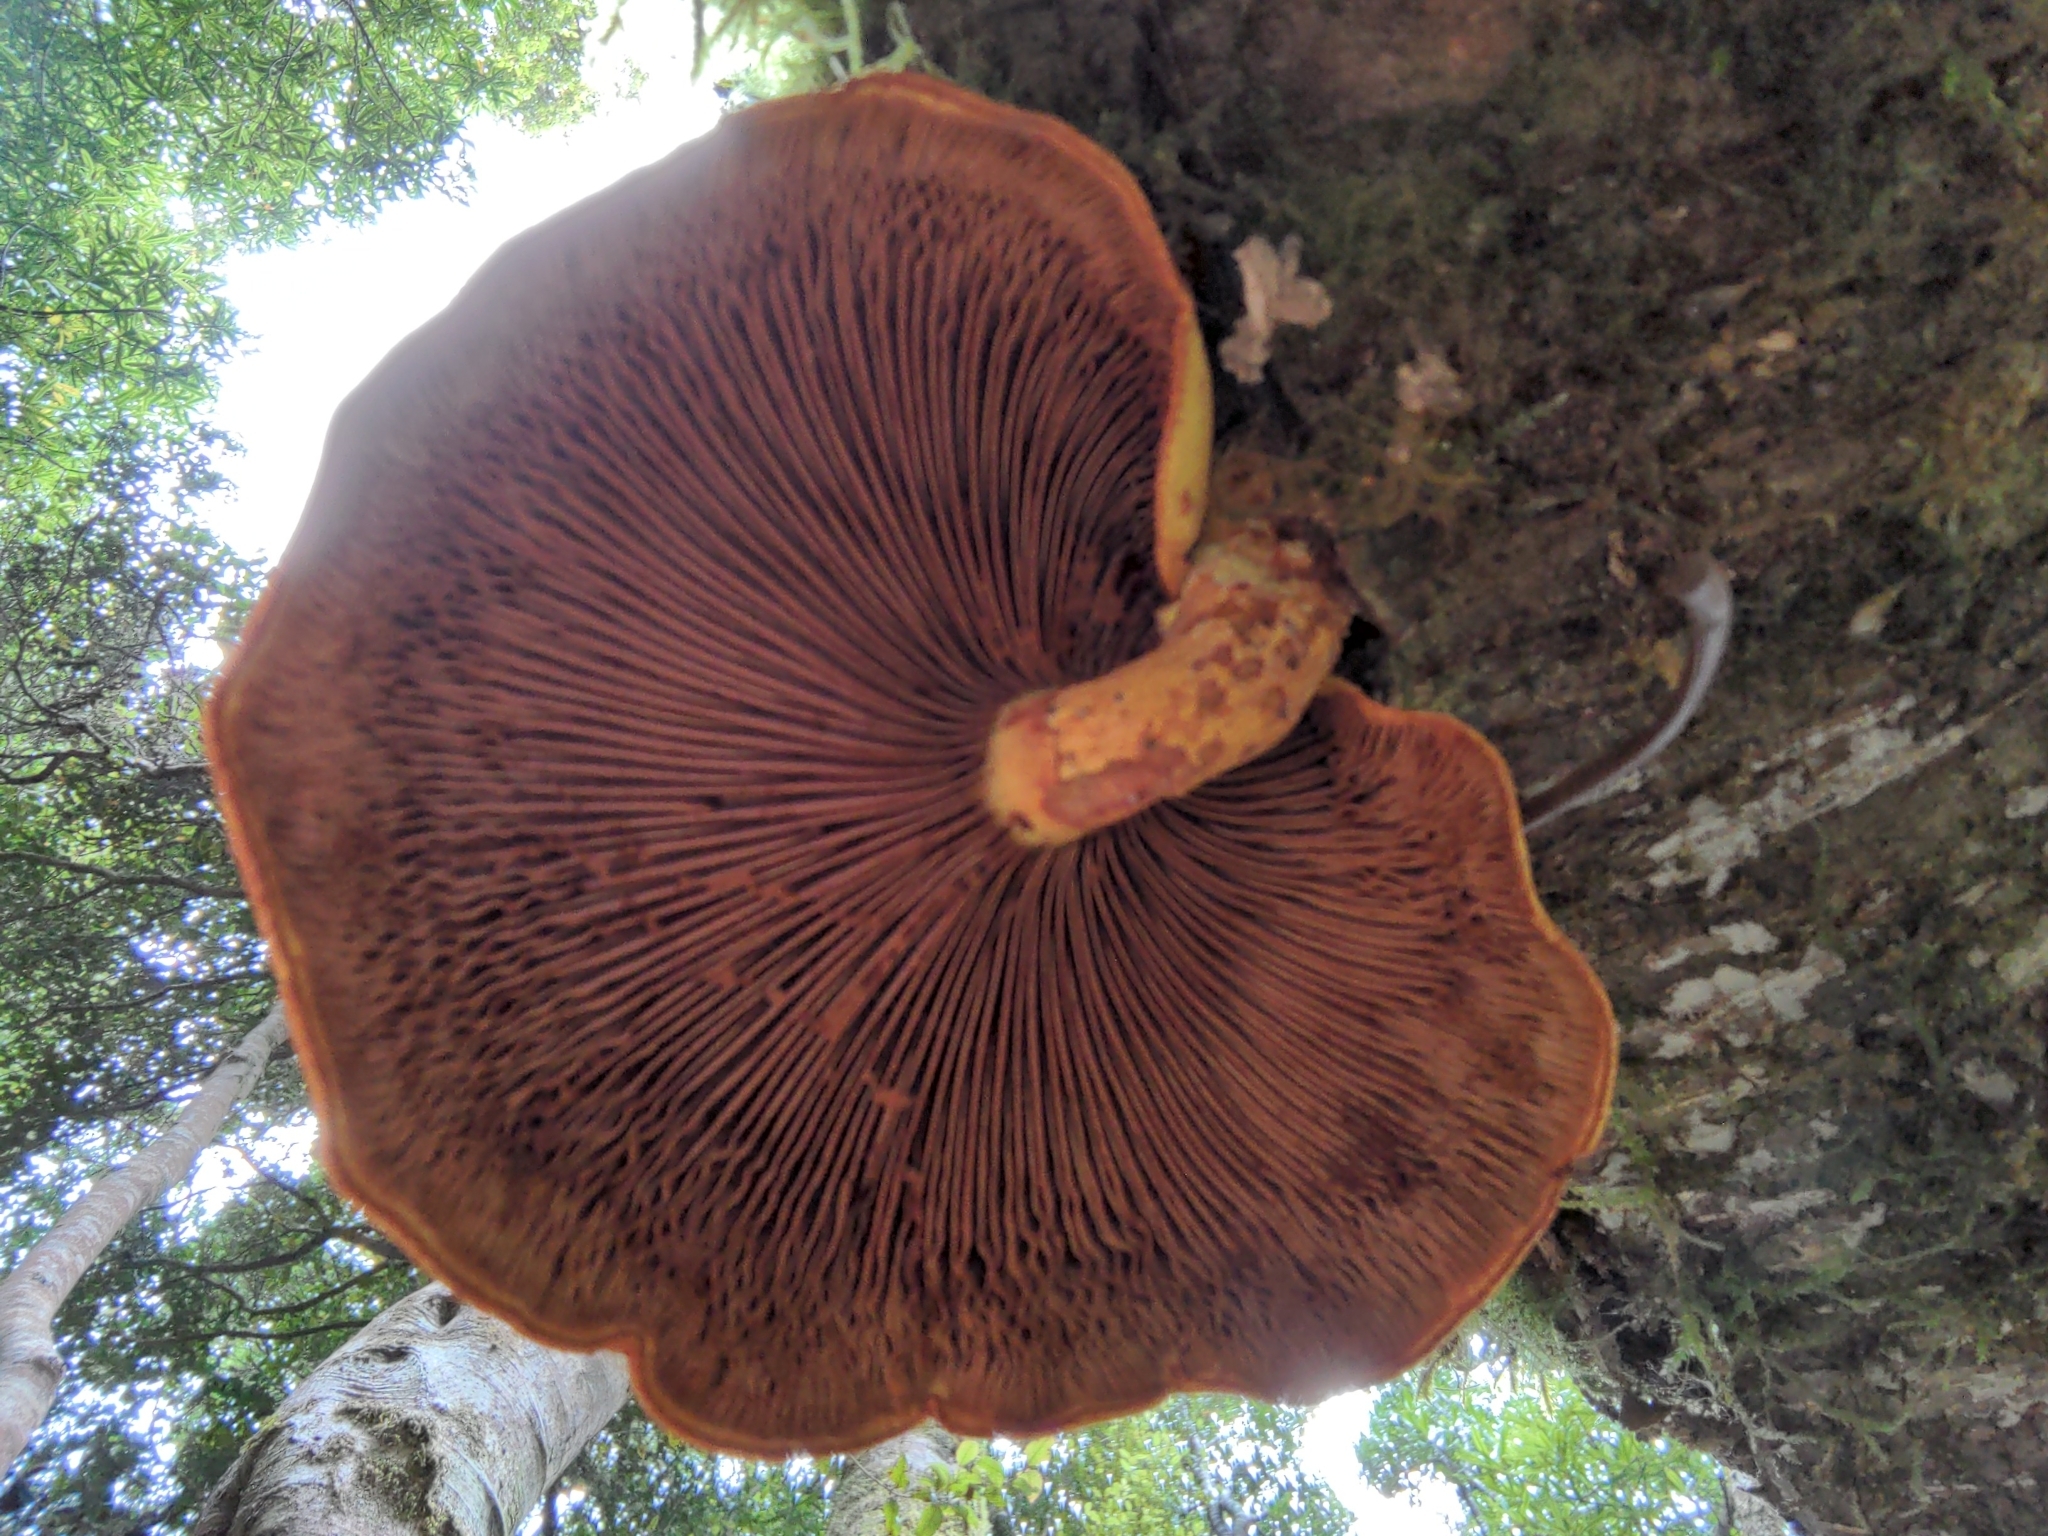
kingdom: Fungi
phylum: Basidiomycota
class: Agaricomycetes
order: Agaricales
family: Hymenogastraceae
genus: Gymnopilus
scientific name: Gymnopilus junonius
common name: Spectacular rustgill
